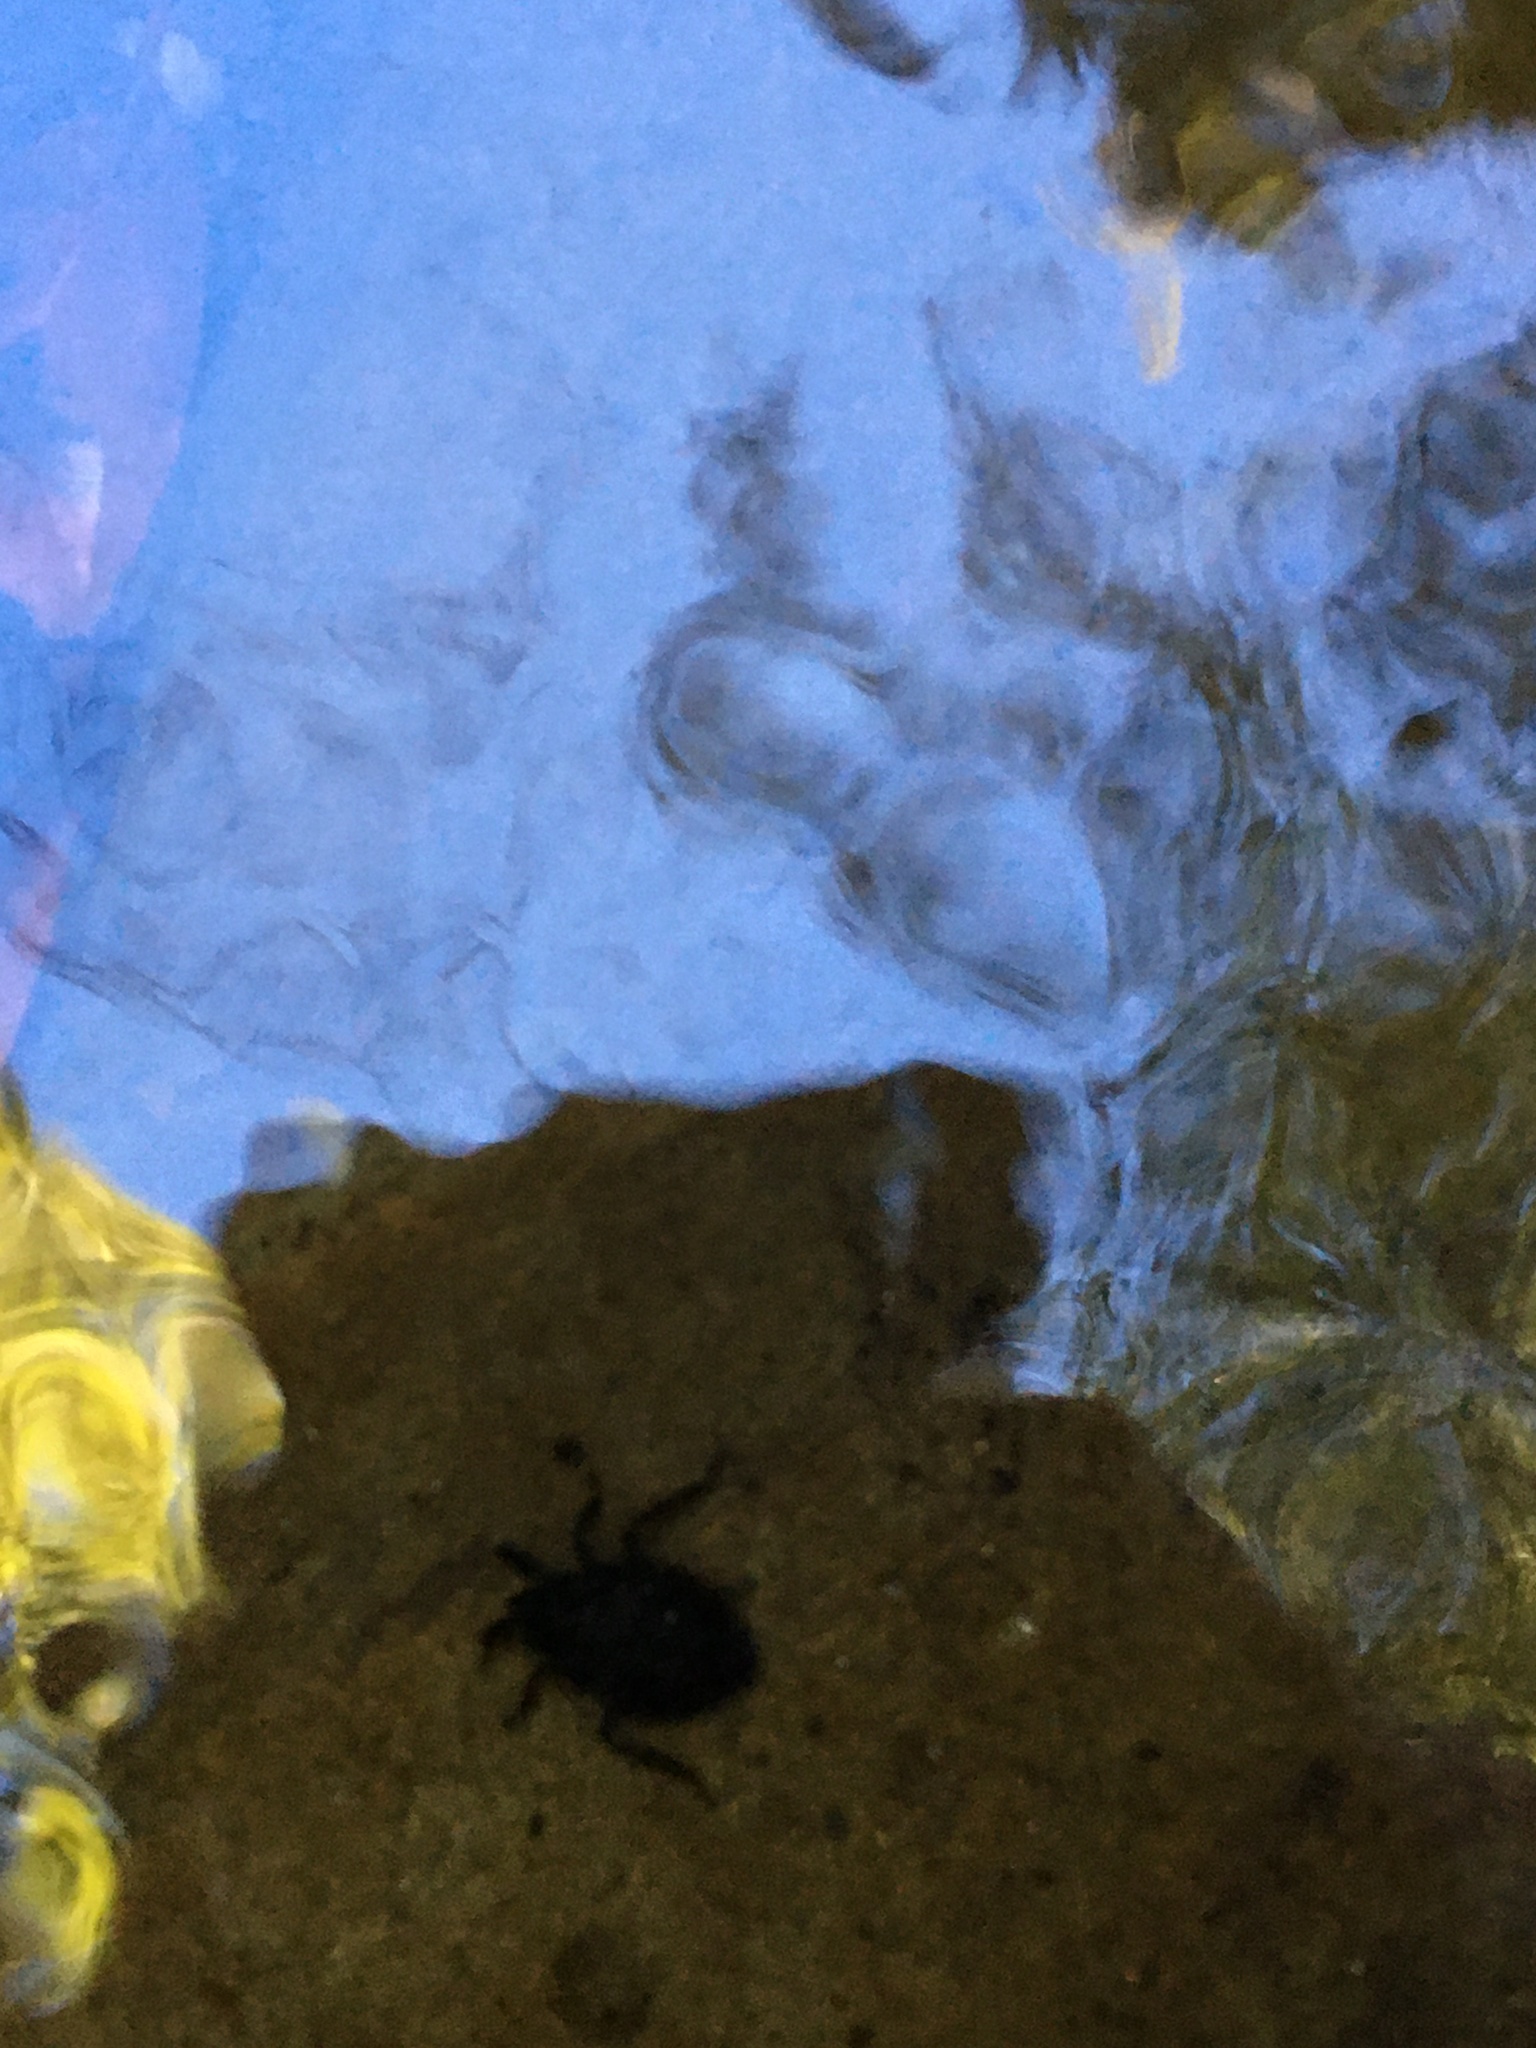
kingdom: Animalia
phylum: Arthropoda
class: Insecta
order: Hemiptera
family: Belostomatidae
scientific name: Belostomatidae
